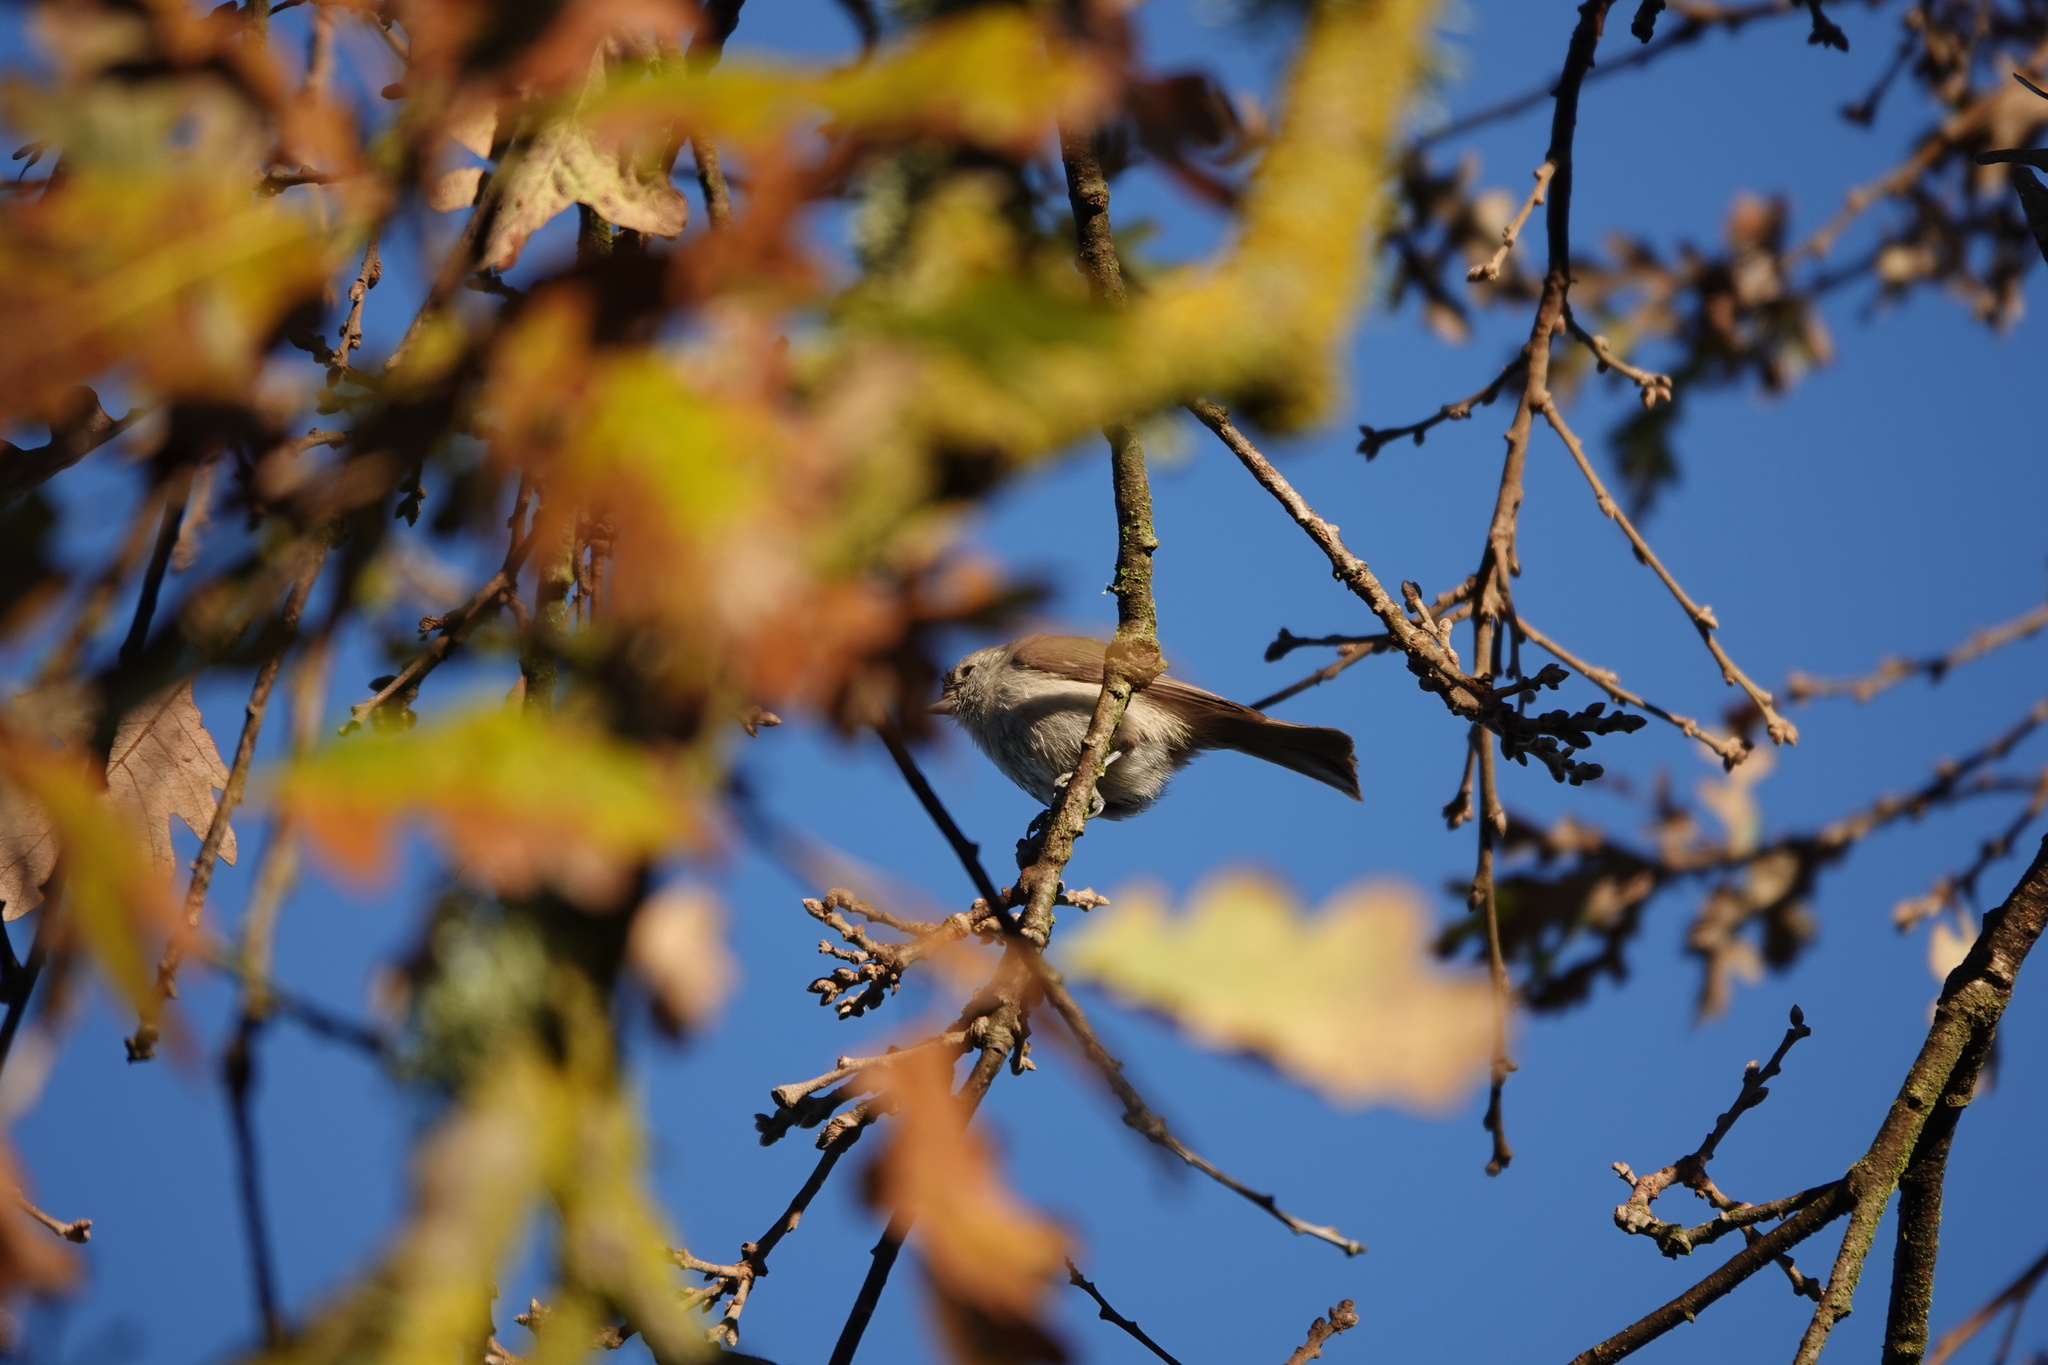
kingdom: Animalia
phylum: Chordata
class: Aves
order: Passeriformes
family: Paridae
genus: Baeolophus
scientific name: Baeolophus inornatus
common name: Oak titmouse
